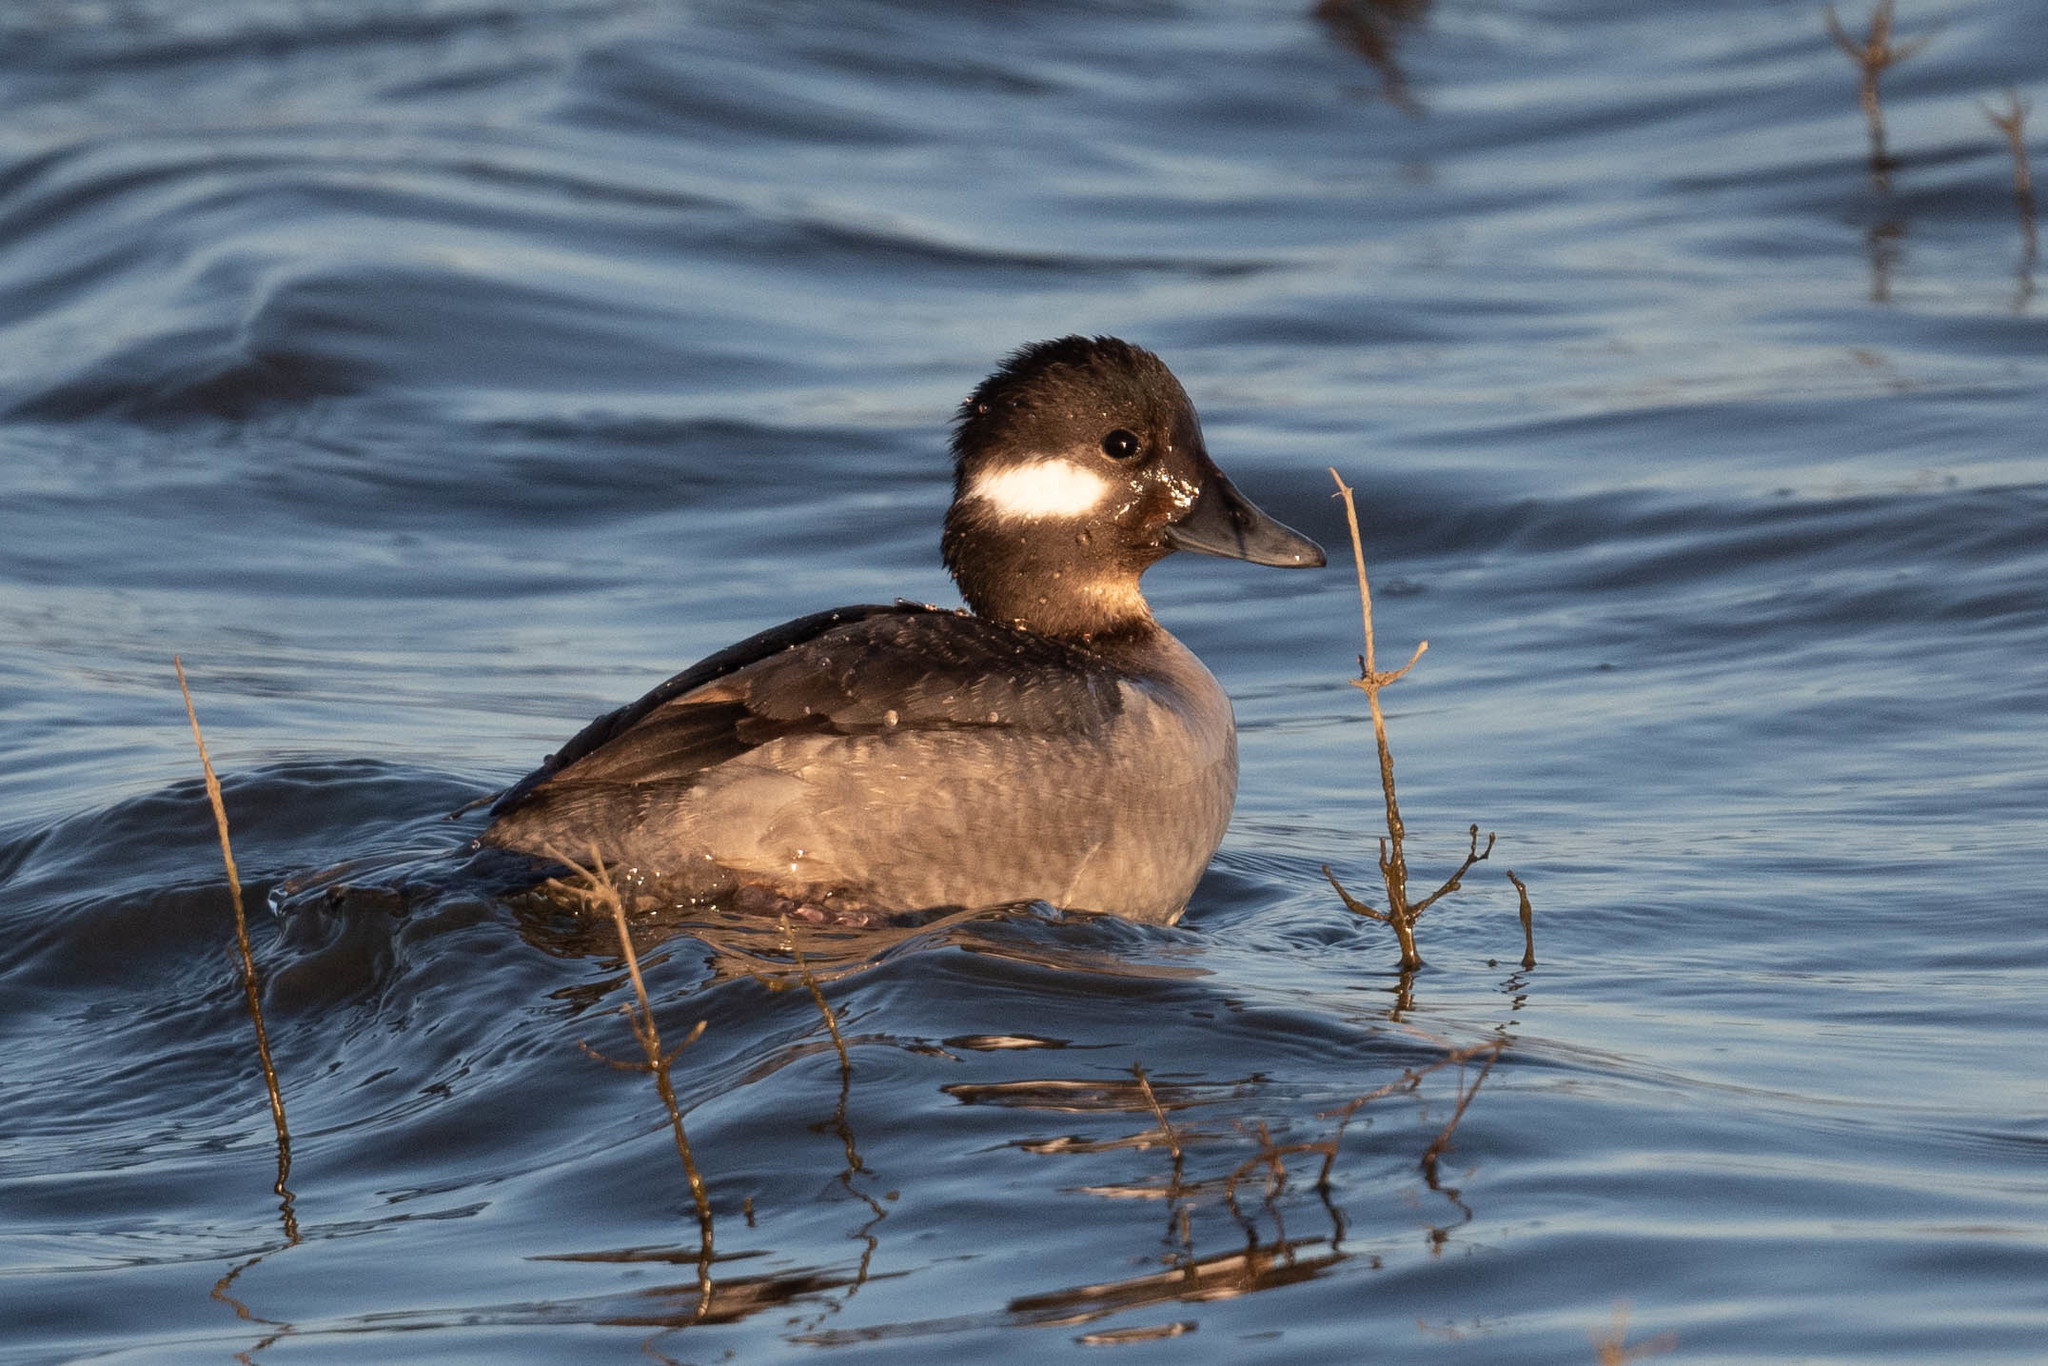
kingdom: Animalia
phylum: Chordata
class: Aves
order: Anseriformes
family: Anatidae
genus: Bucephala
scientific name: Bucephala albeola
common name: Bufflehead
